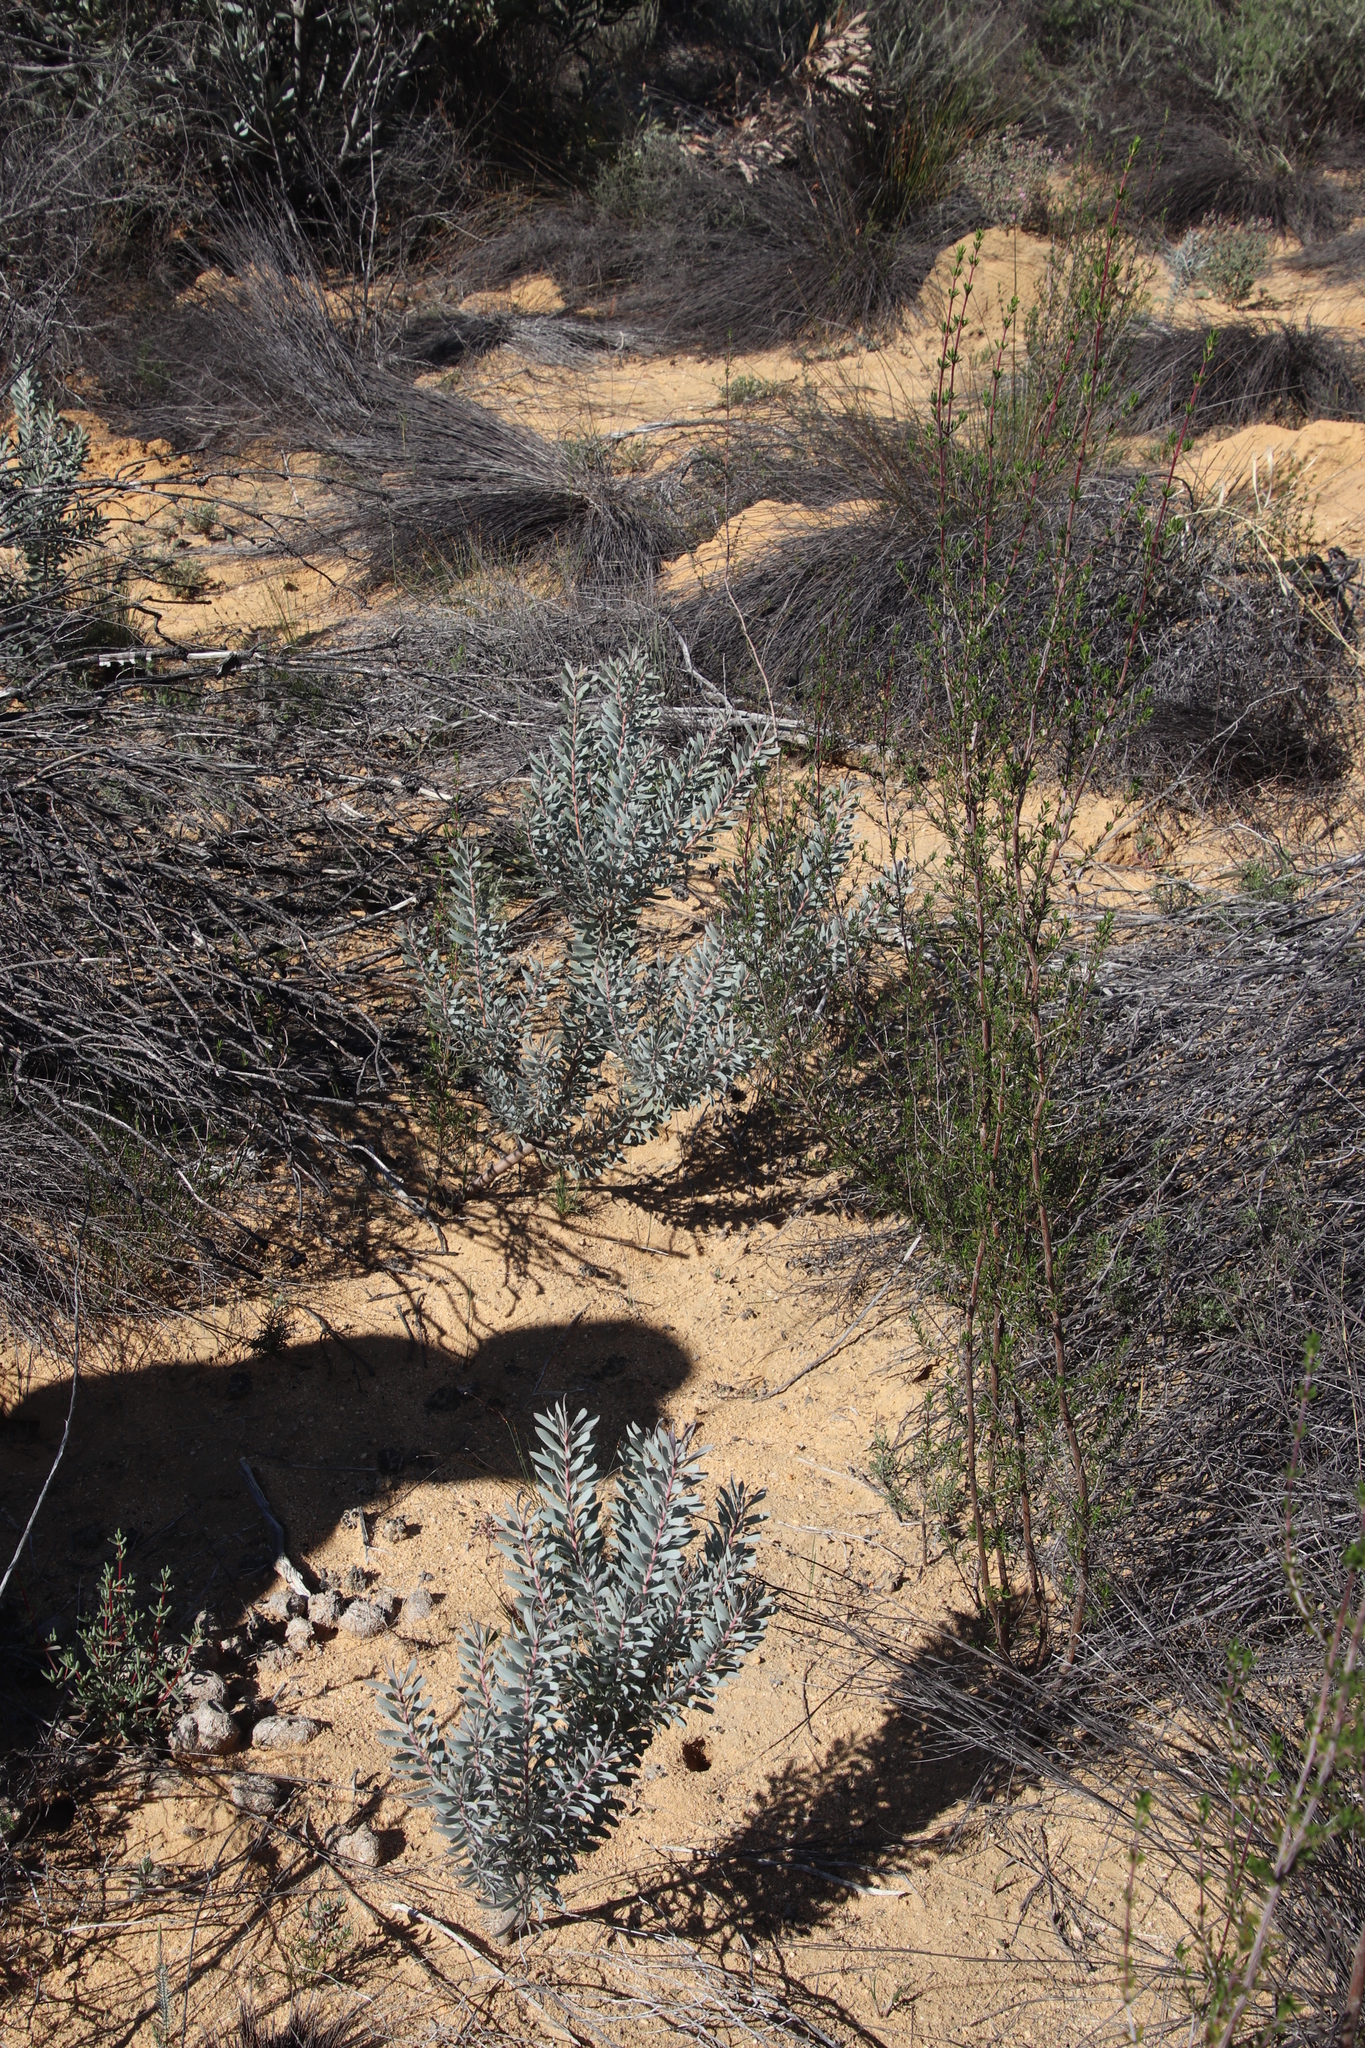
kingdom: Plantae
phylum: Tracheophyta
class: Magnoliopsida
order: Proteales
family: Proteaceae
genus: Leucadendron
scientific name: Leucadendron pubescens
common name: Grey conebush
